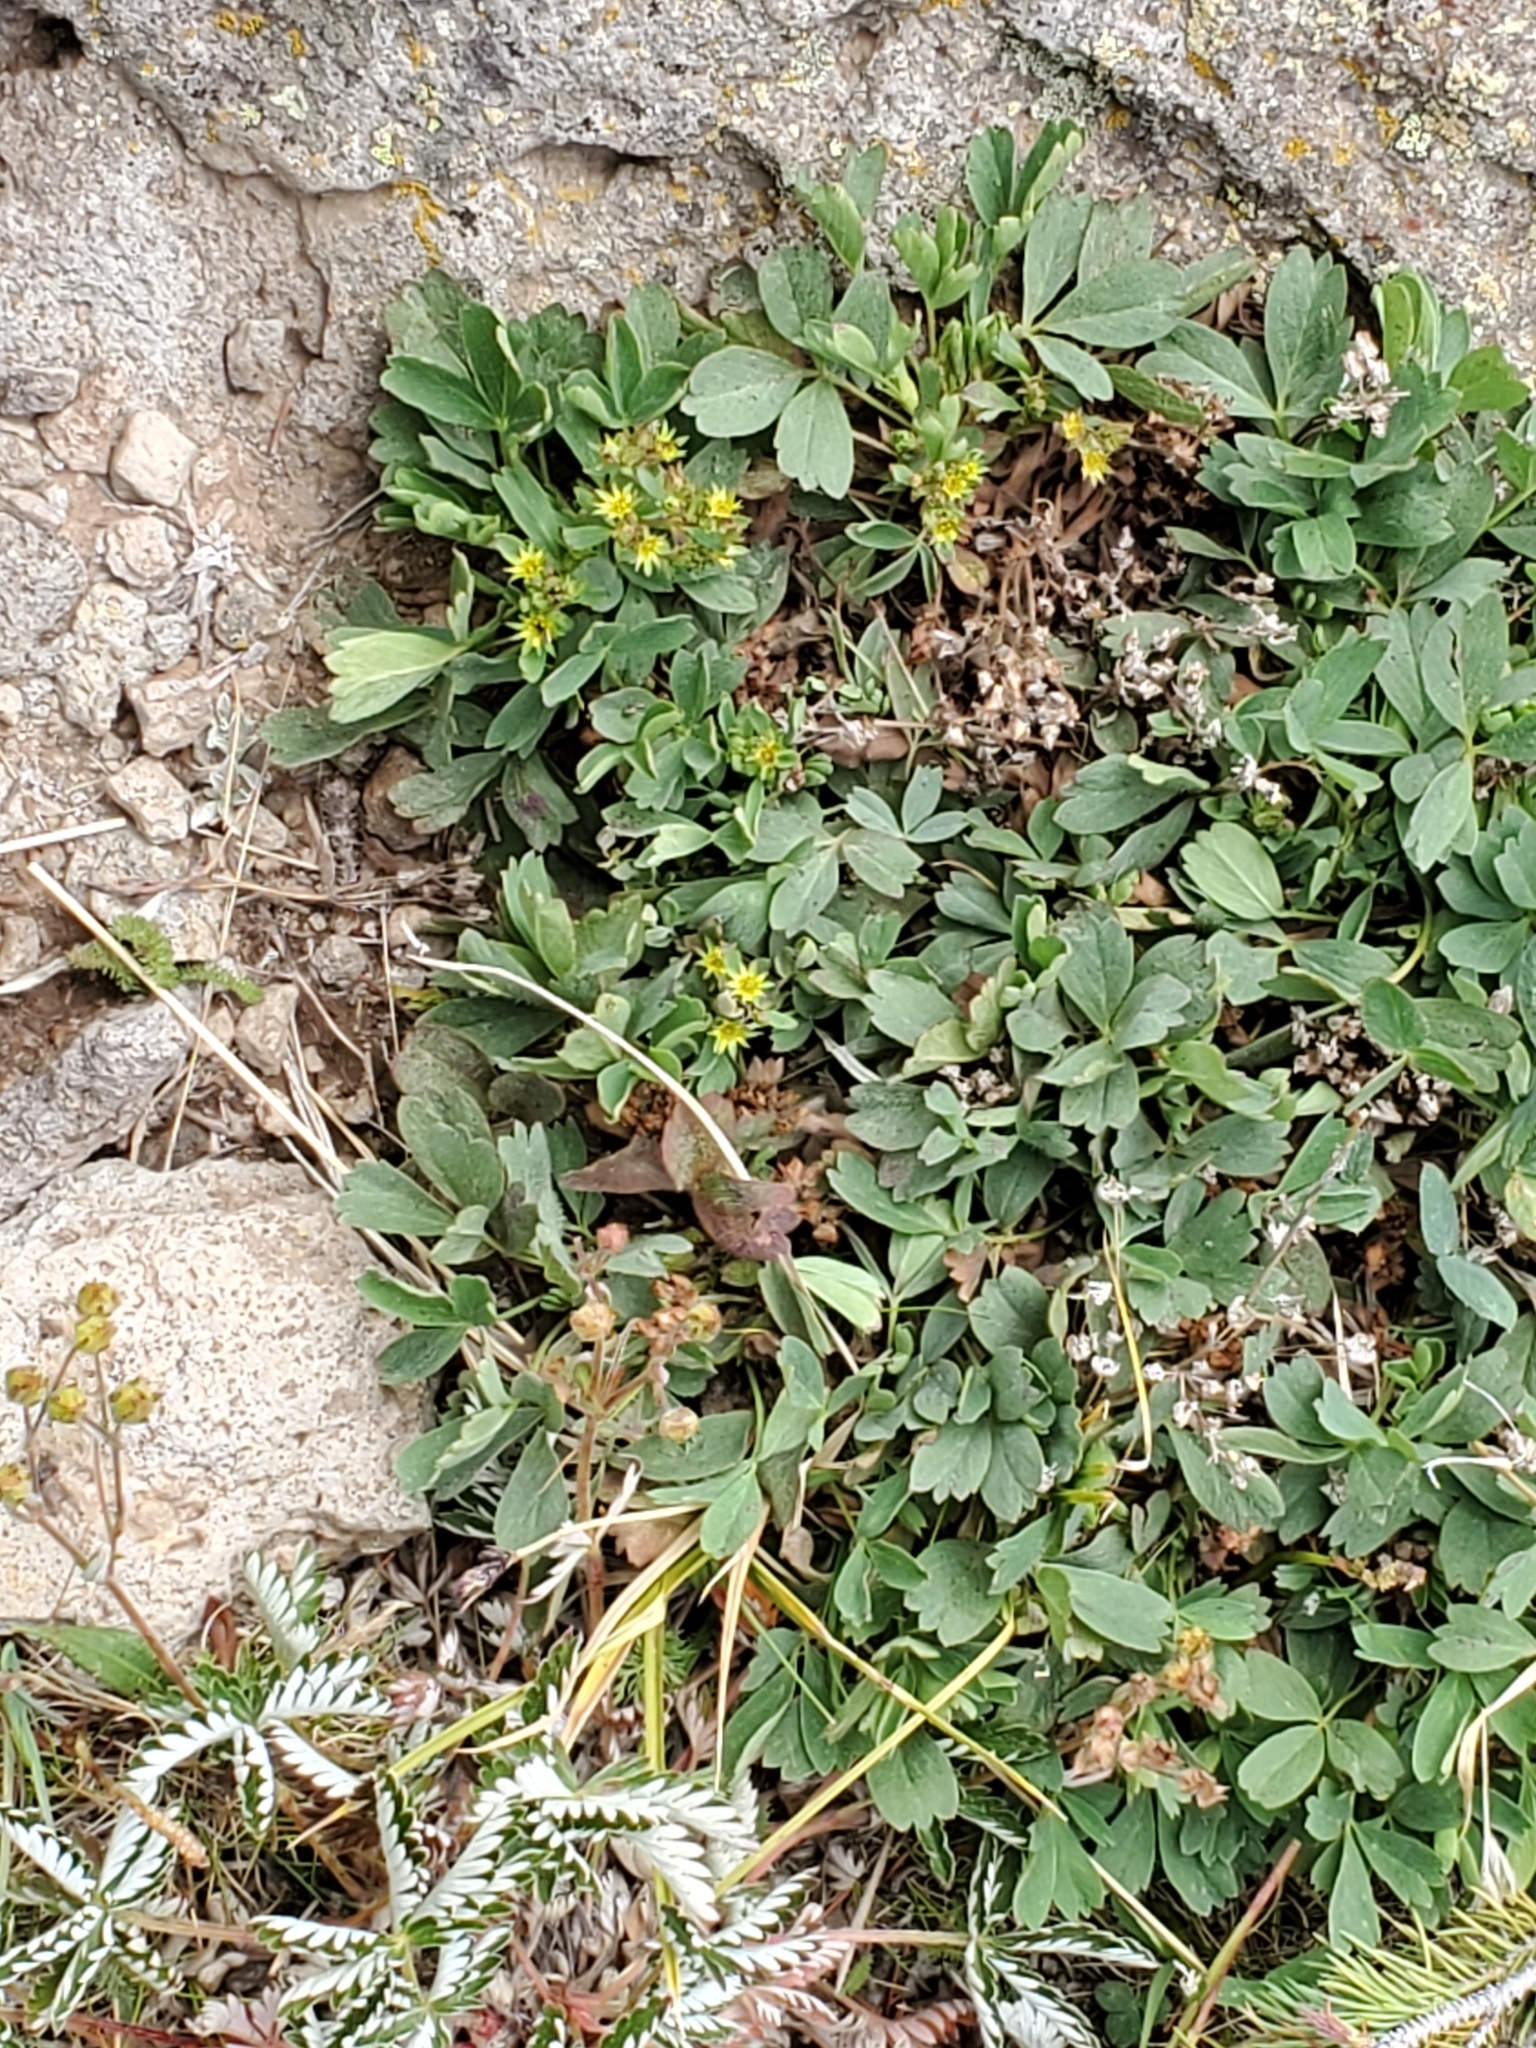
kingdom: Plantae
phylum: Tracheophyta
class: Magnoliopsida
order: Rosales
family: Rosaceae
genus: Sibbaldia
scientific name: Sibbaldia procumbens
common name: Creeping sibbaldia
